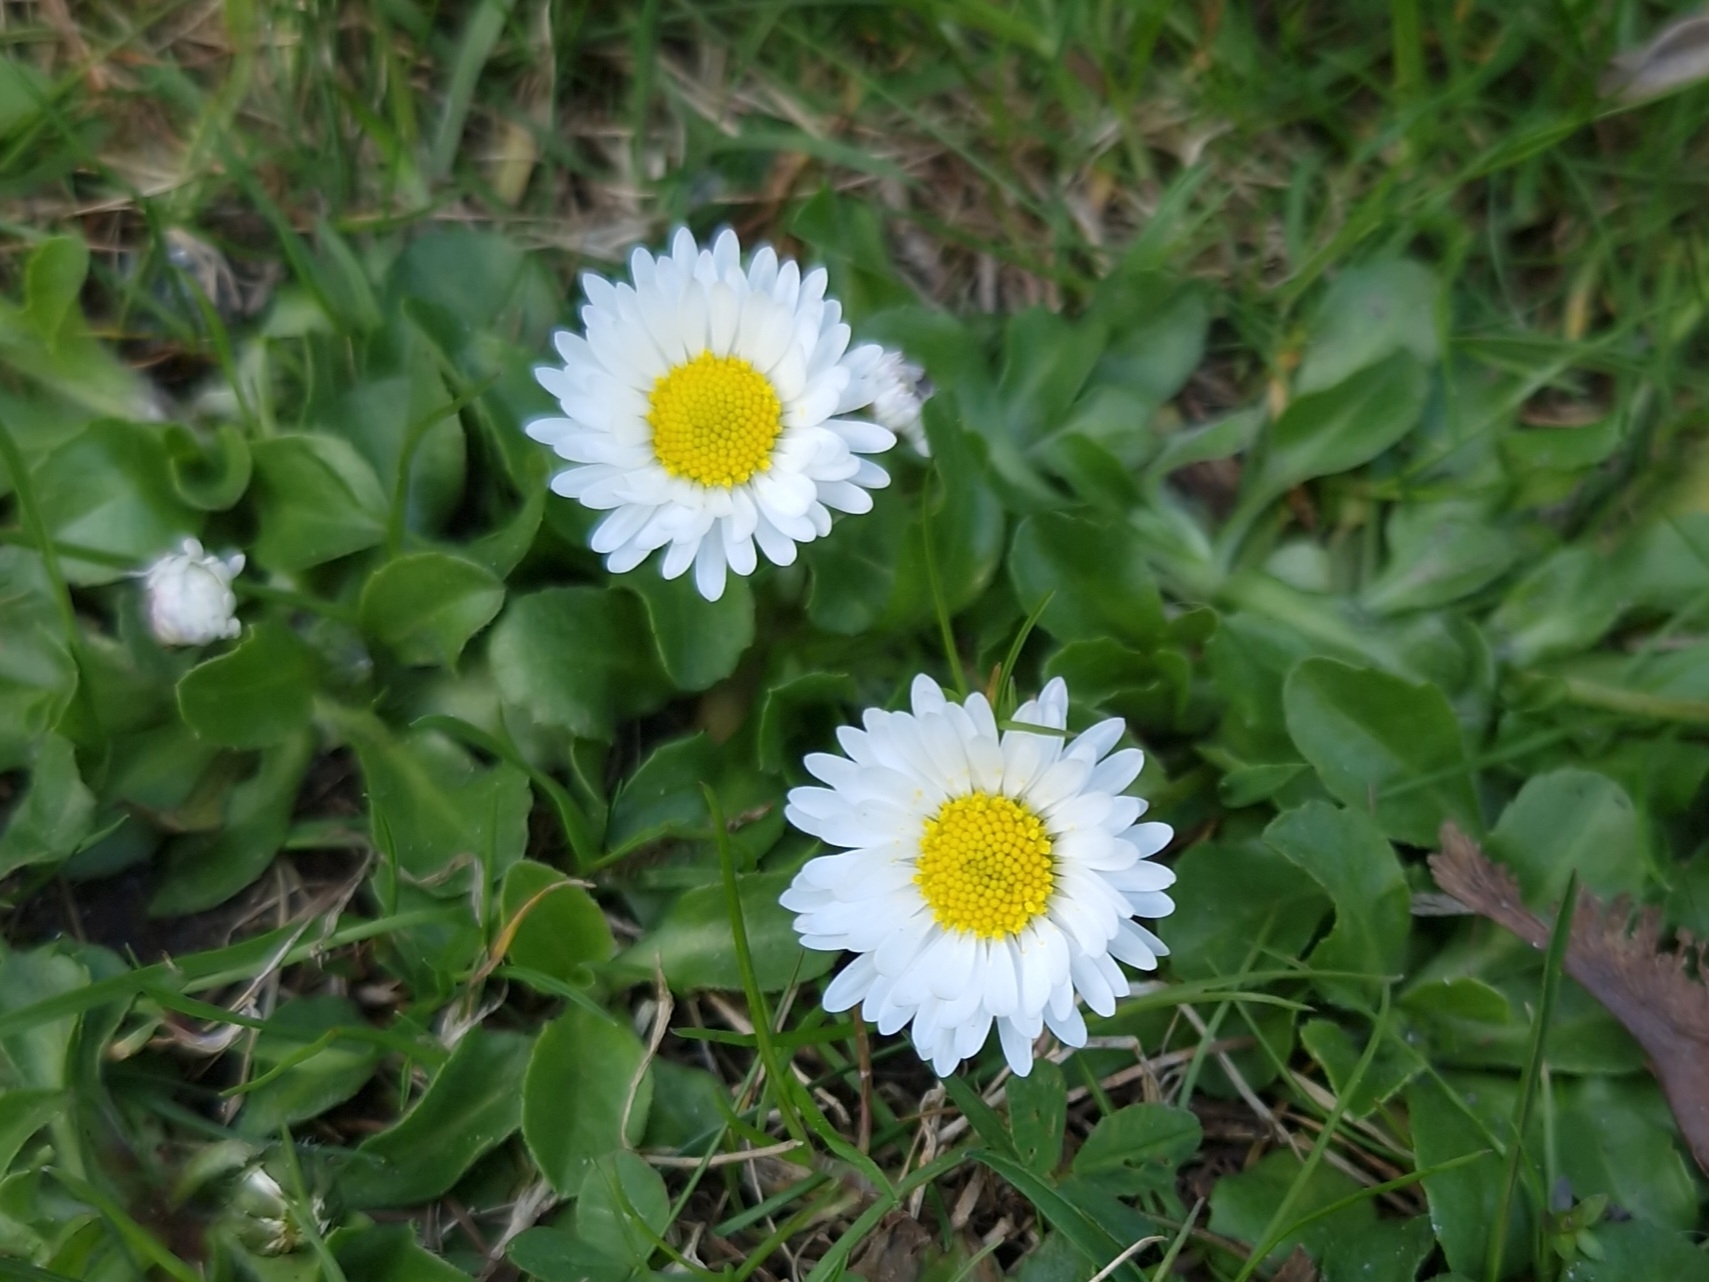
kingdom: Plantae
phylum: Tracheophyta
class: Magnoliopsida
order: Asterales
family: Asteraceae
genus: Bellis
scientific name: Bellis perennis
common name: Lawndaisy
